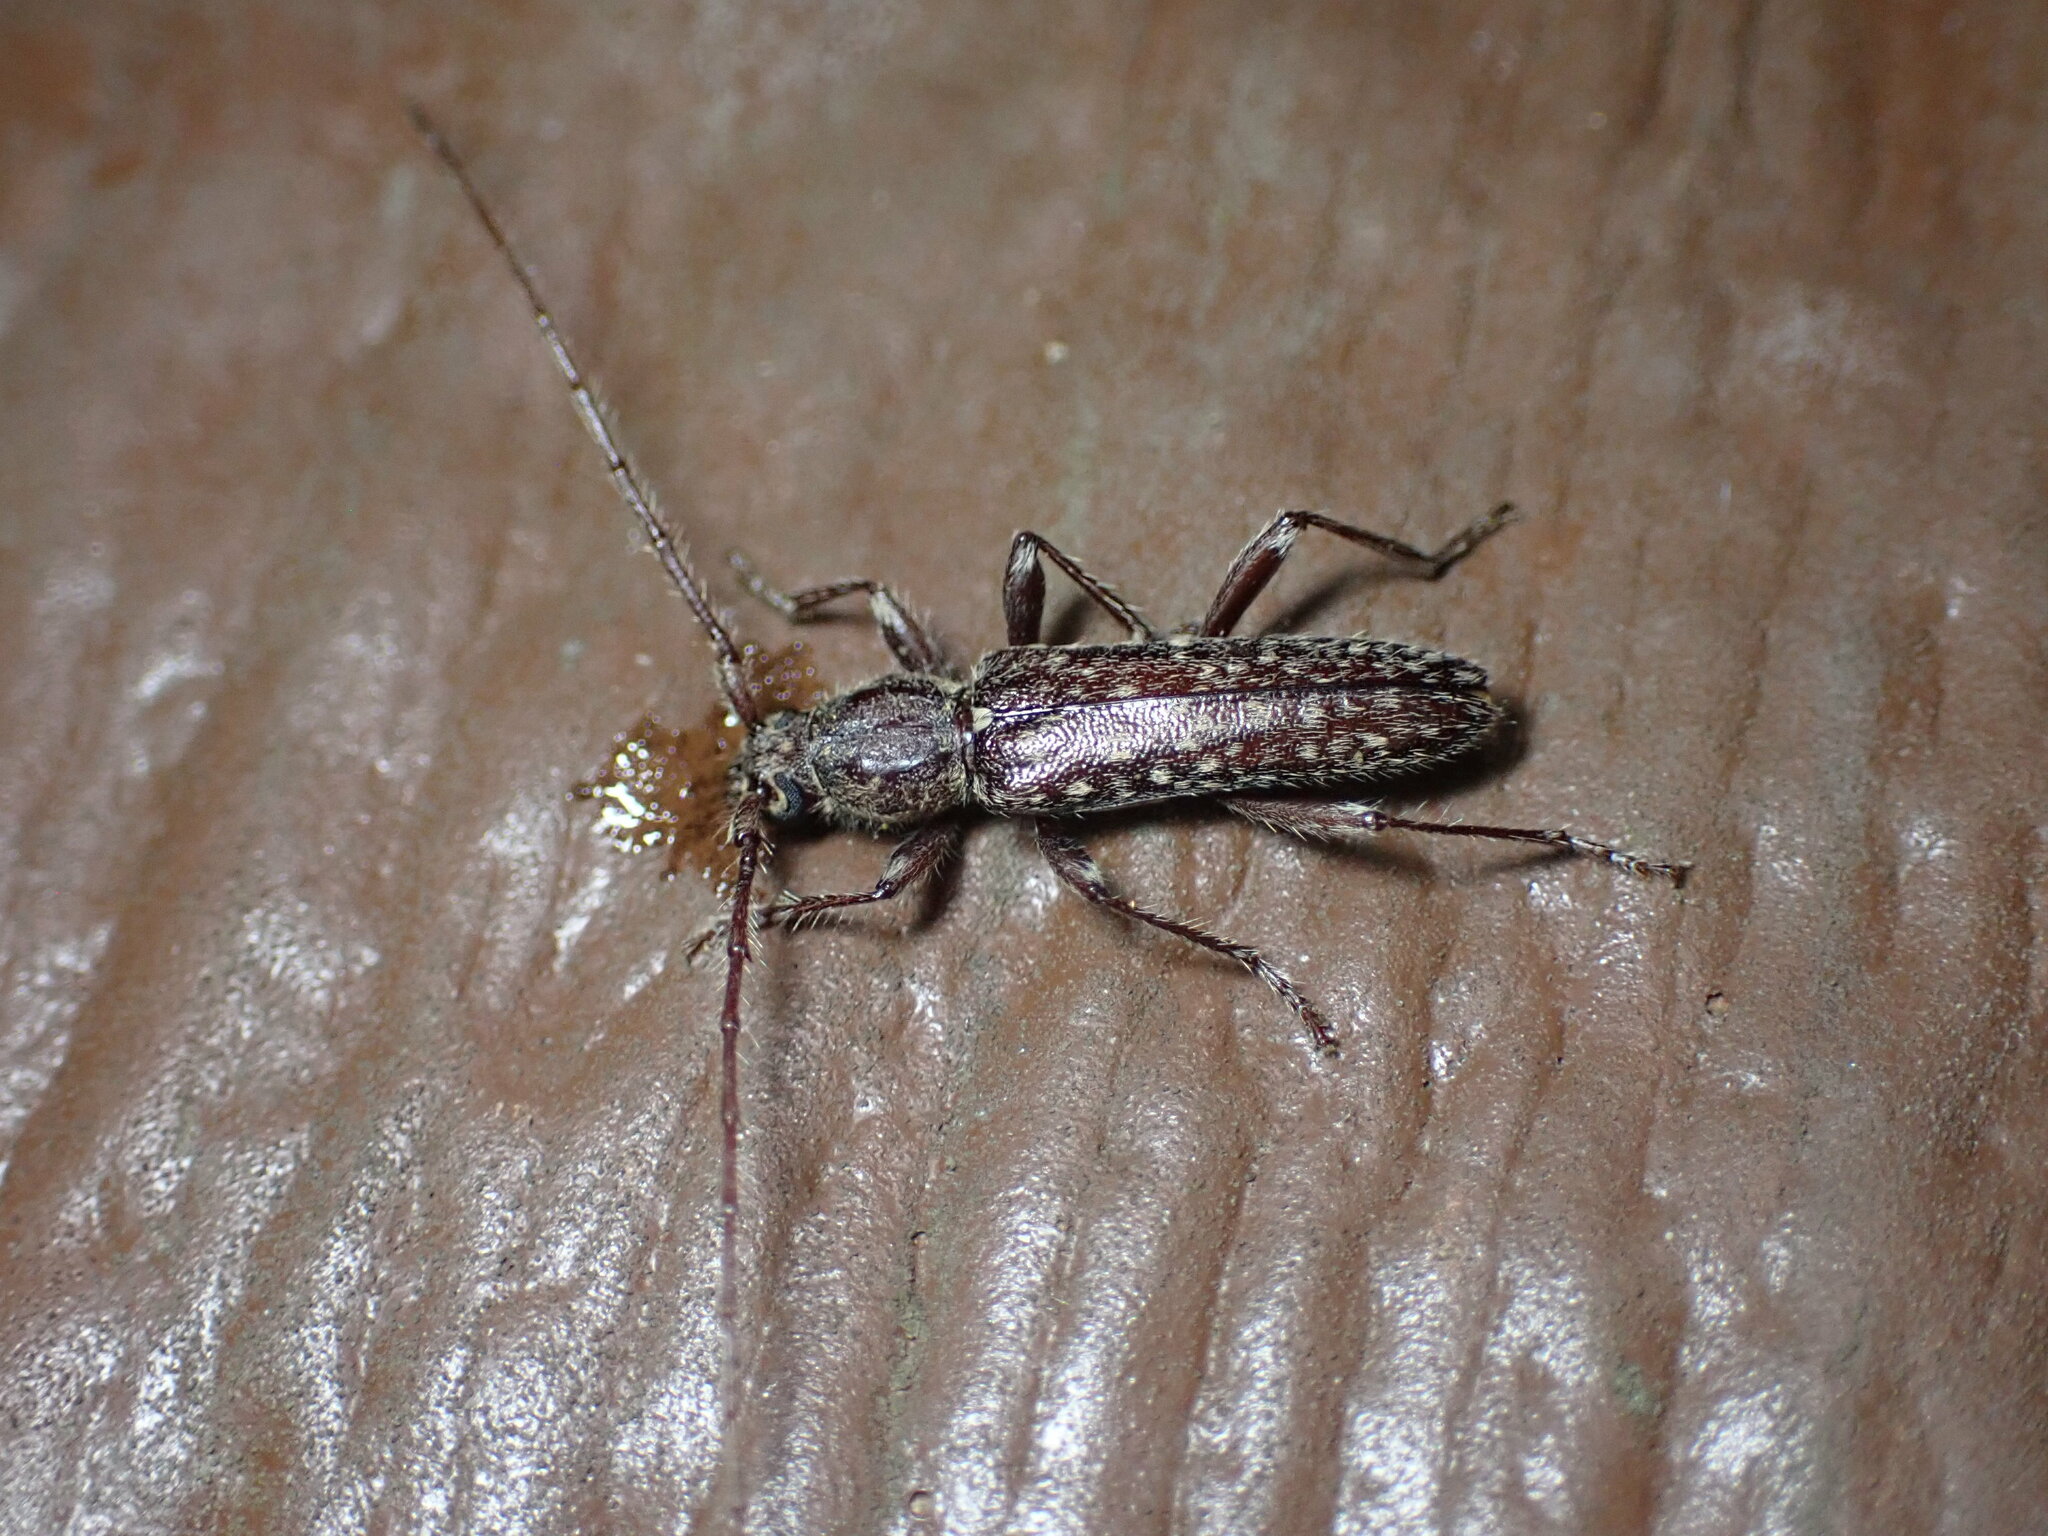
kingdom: Animalia
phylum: Arthropoda
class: Insecta
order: Coleoptera
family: Cerambycidae
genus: Anelaphus
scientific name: Anelaphus pumilus
